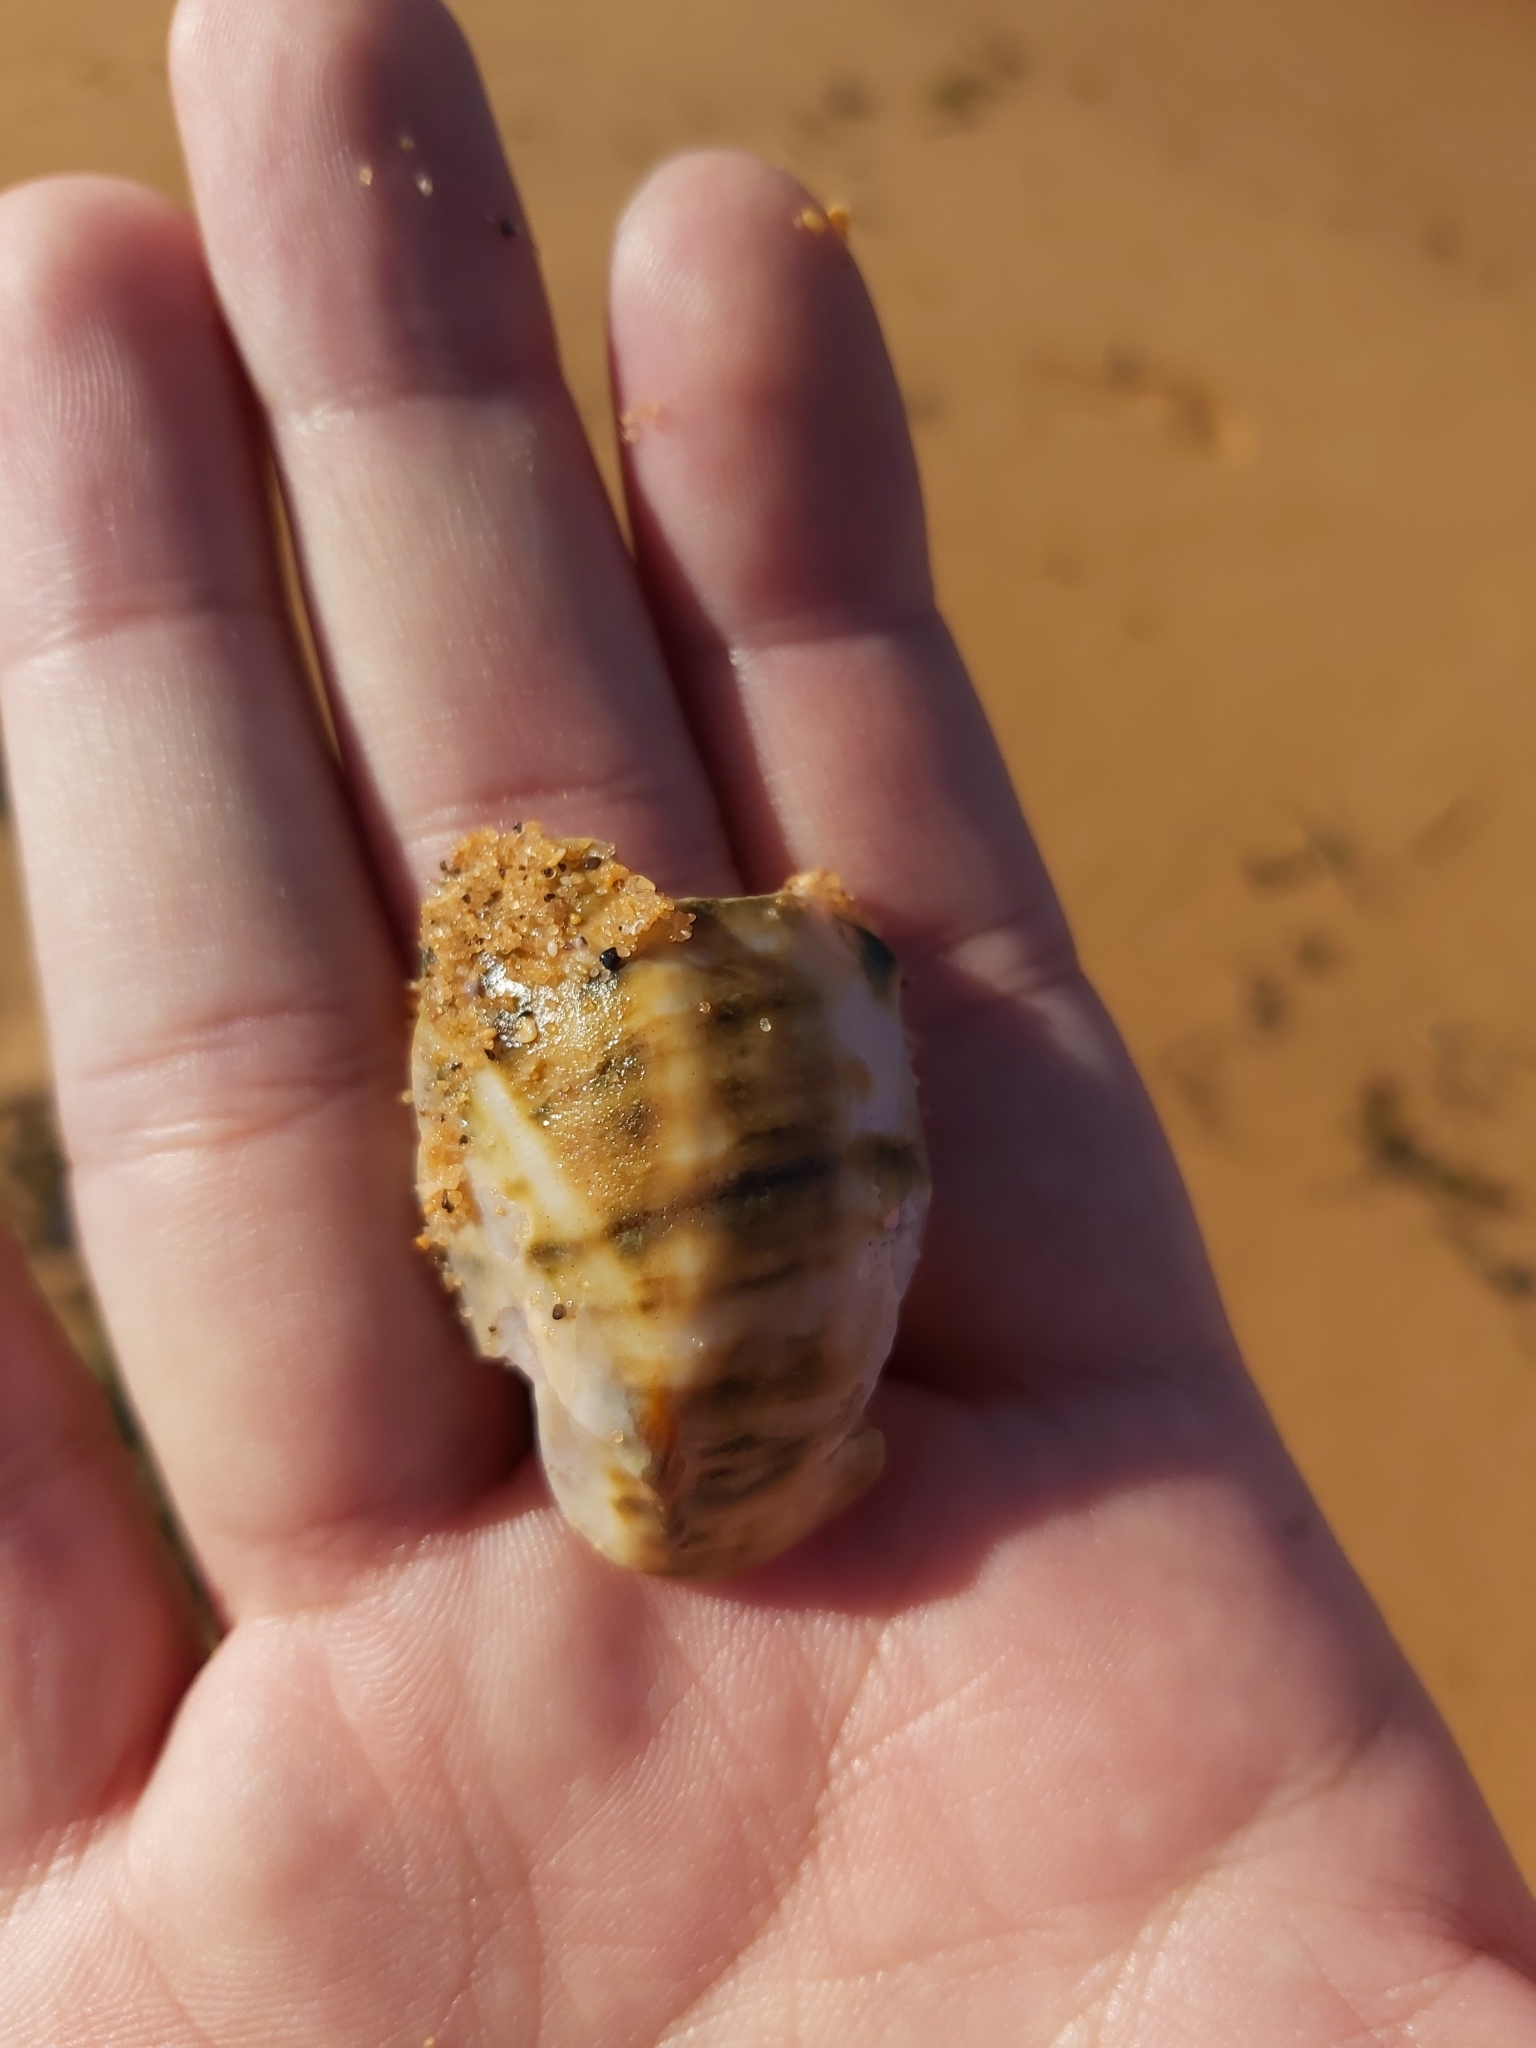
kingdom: Animalia
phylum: Mollusca
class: Gastropoda
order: Trochida
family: Turbinidae
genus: Turbo
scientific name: Turbo militaris
